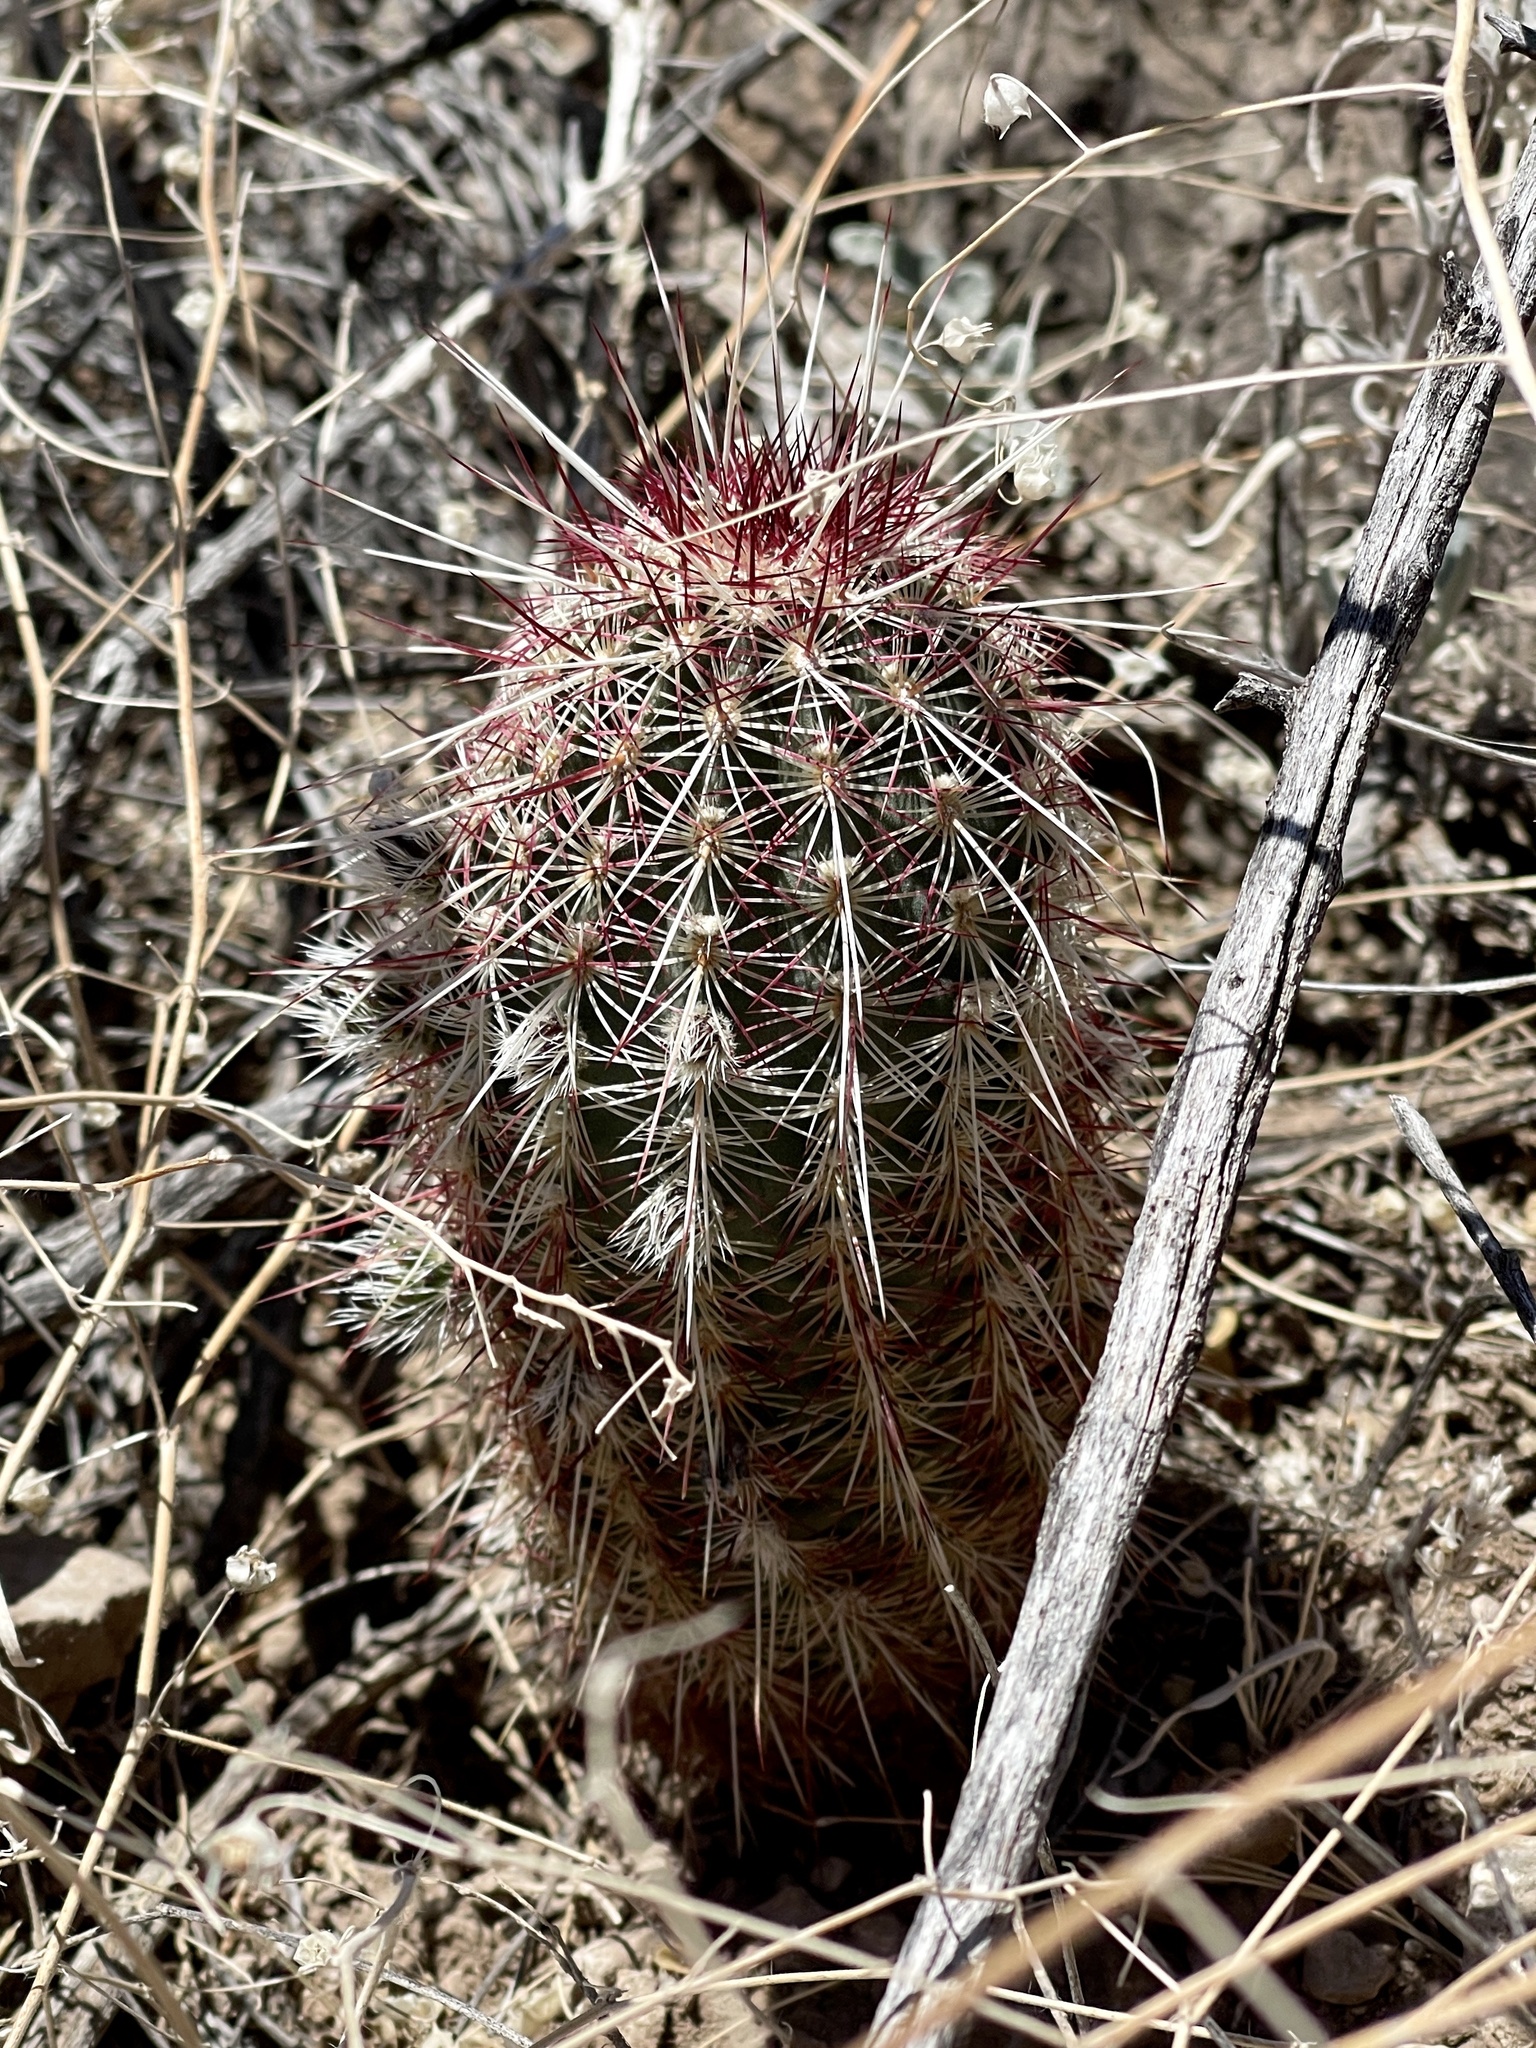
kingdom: Plantae
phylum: Tracheophyta
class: Magnoliopsida
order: Caryophyllales
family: Cactaceae
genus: Echinocereus
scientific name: Echinocereus viridiflorus
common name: Nylon hedgehog cactus
